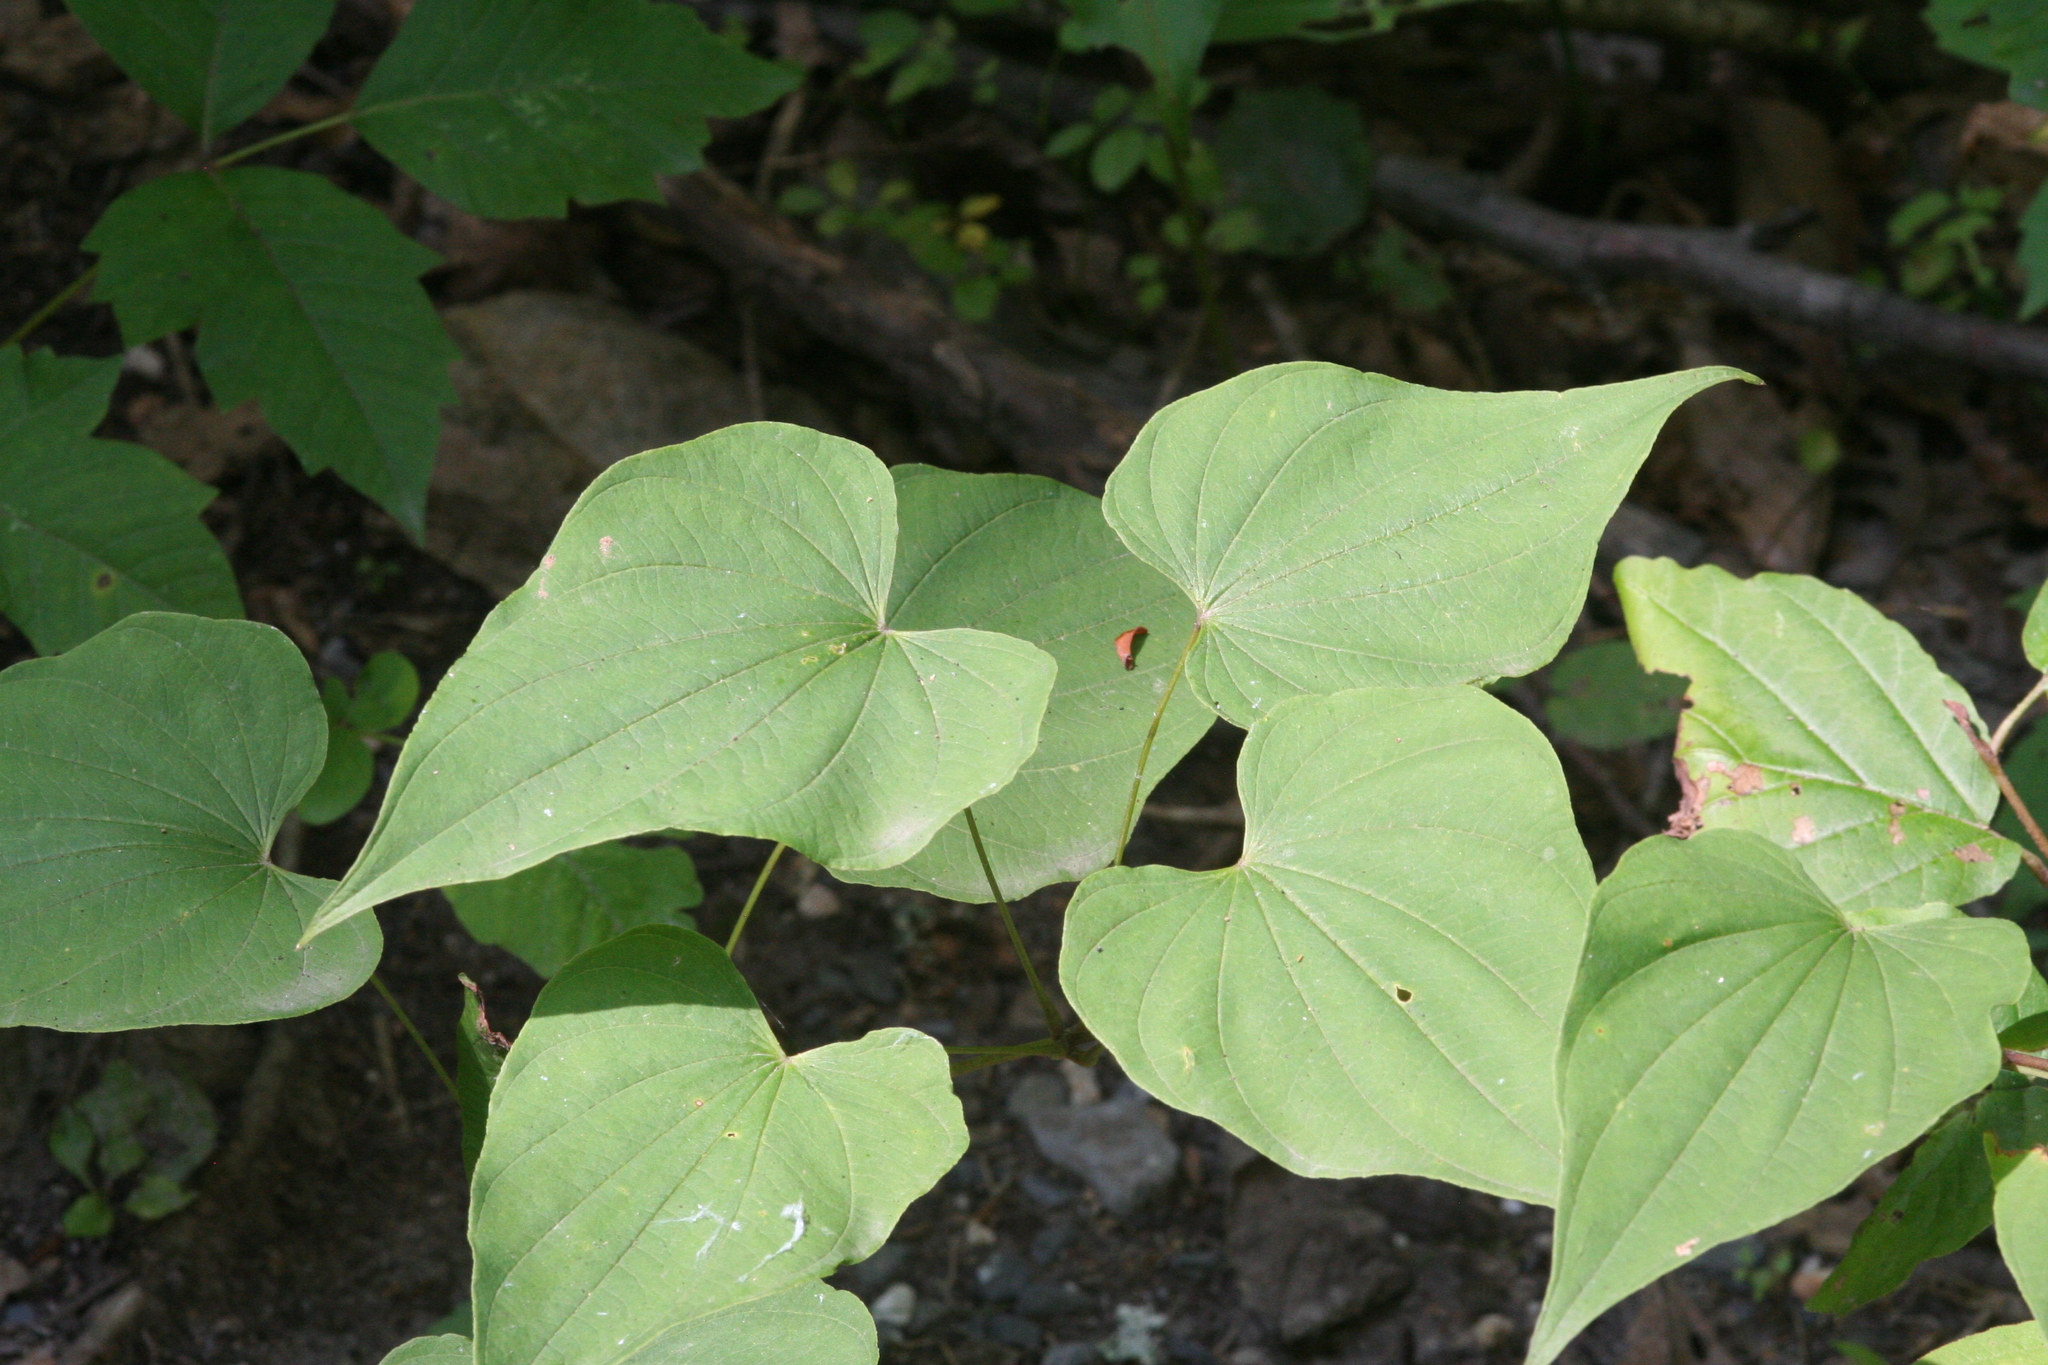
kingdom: Plantae
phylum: Tracheophyta
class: Liliopsida
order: Dioscoreales
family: Dioscoreaceae
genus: Dioscorea
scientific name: Dioscorea villosa
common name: Wild yam
